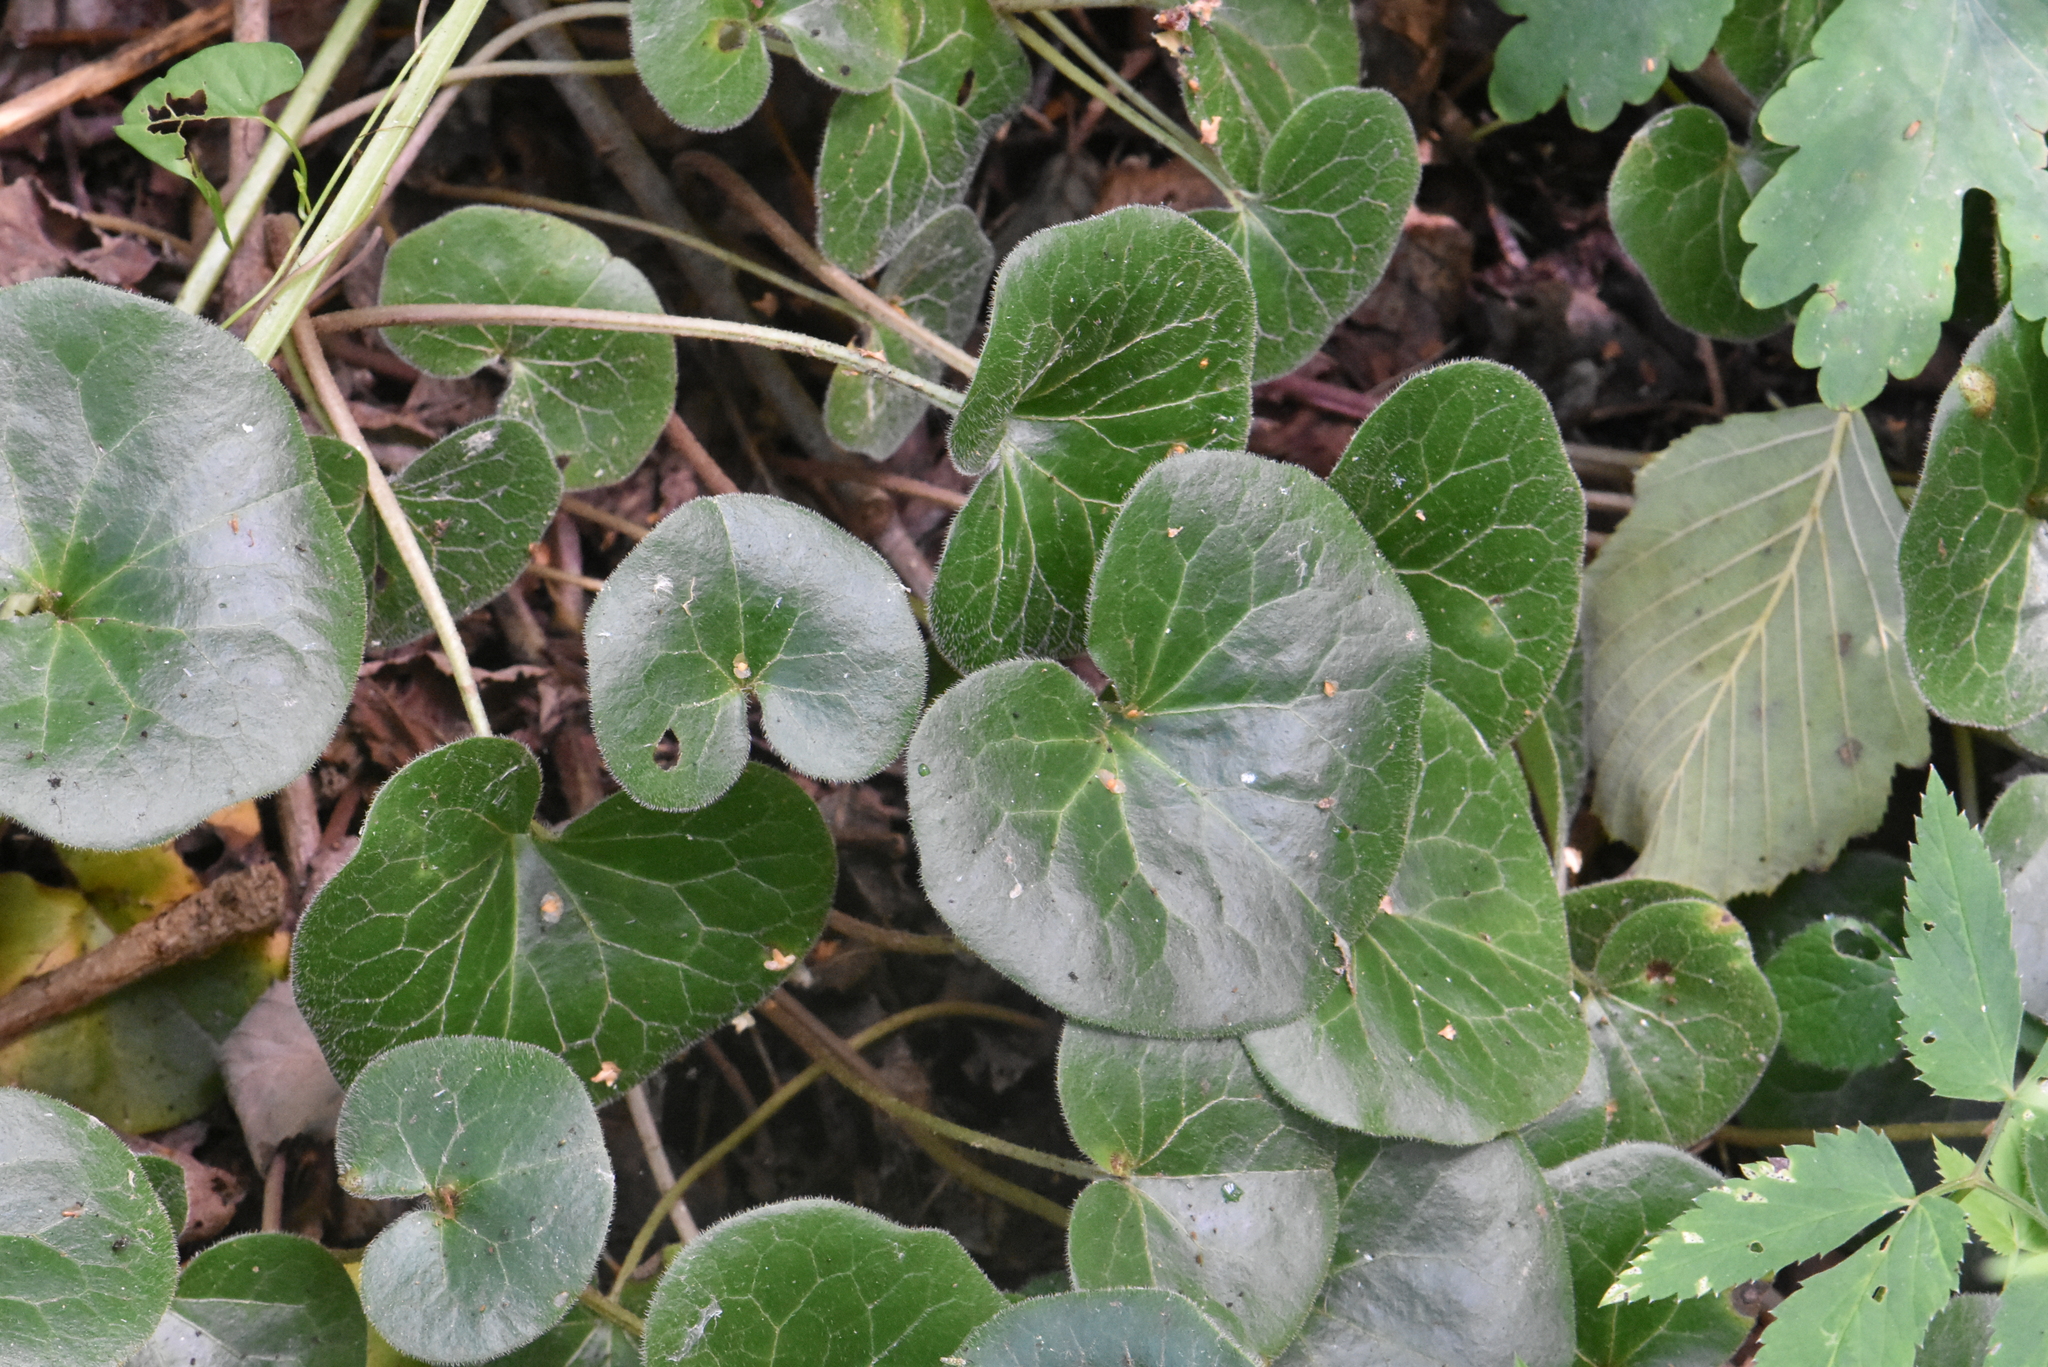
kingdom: Plantae
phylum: Tracheophyta
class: Magnoliopsida
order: Piperales
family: Aristolochiaceae
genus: Asarum
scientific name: Asarum europaeum
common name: Asarabacca
